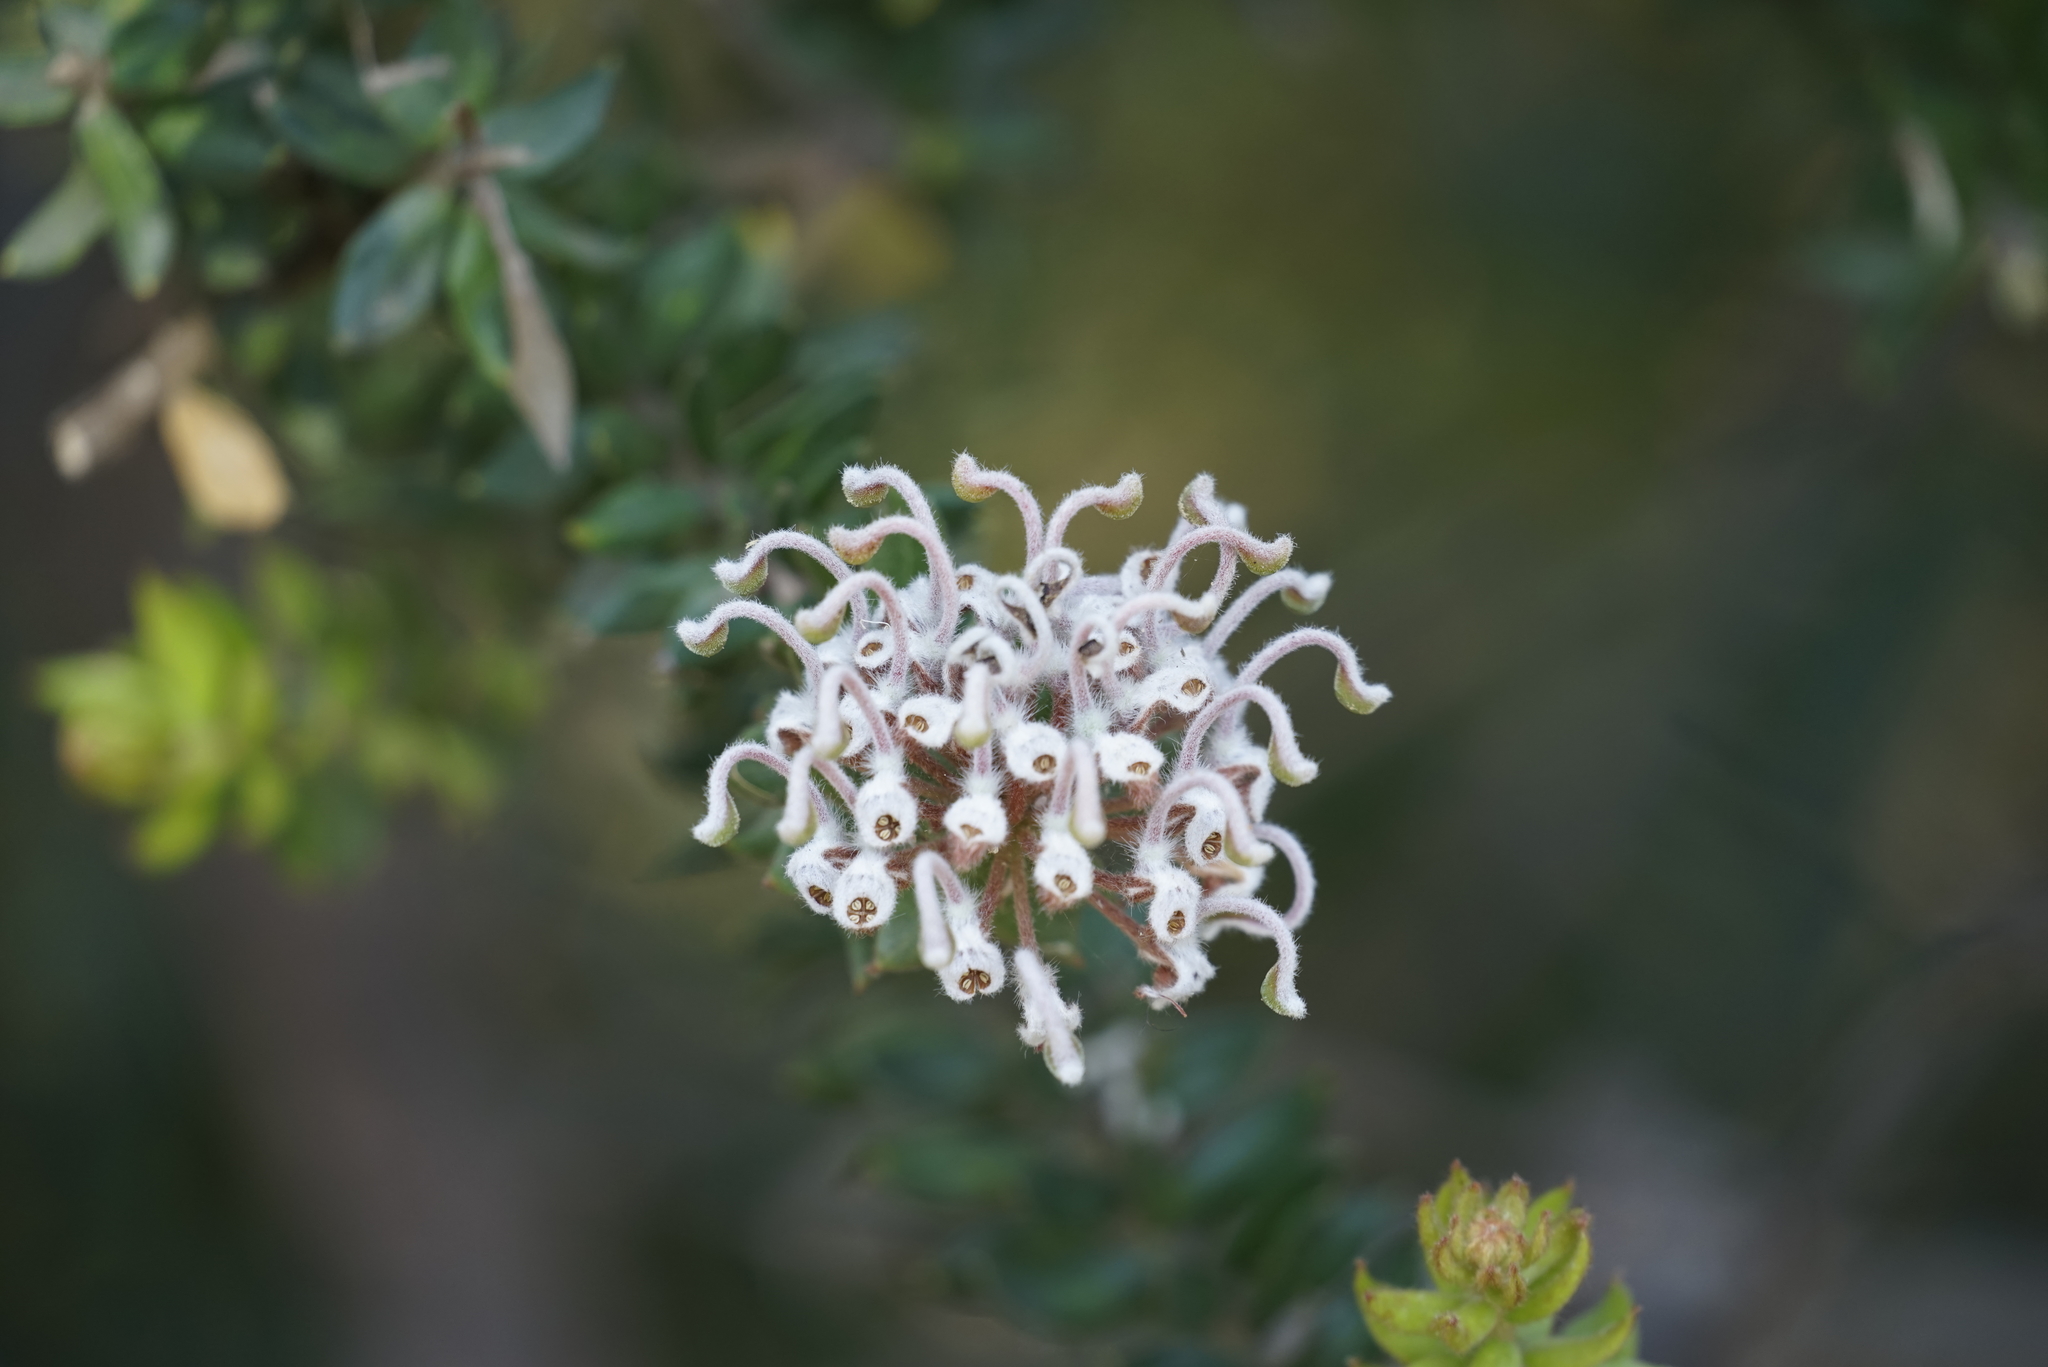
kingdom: Plantae
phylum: Tracheophyta
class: Magnoliopsida
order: Proteales
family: Proteaceae
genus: Grevillea
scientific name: Grevillea buxifolia
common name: Grey spiderflower
